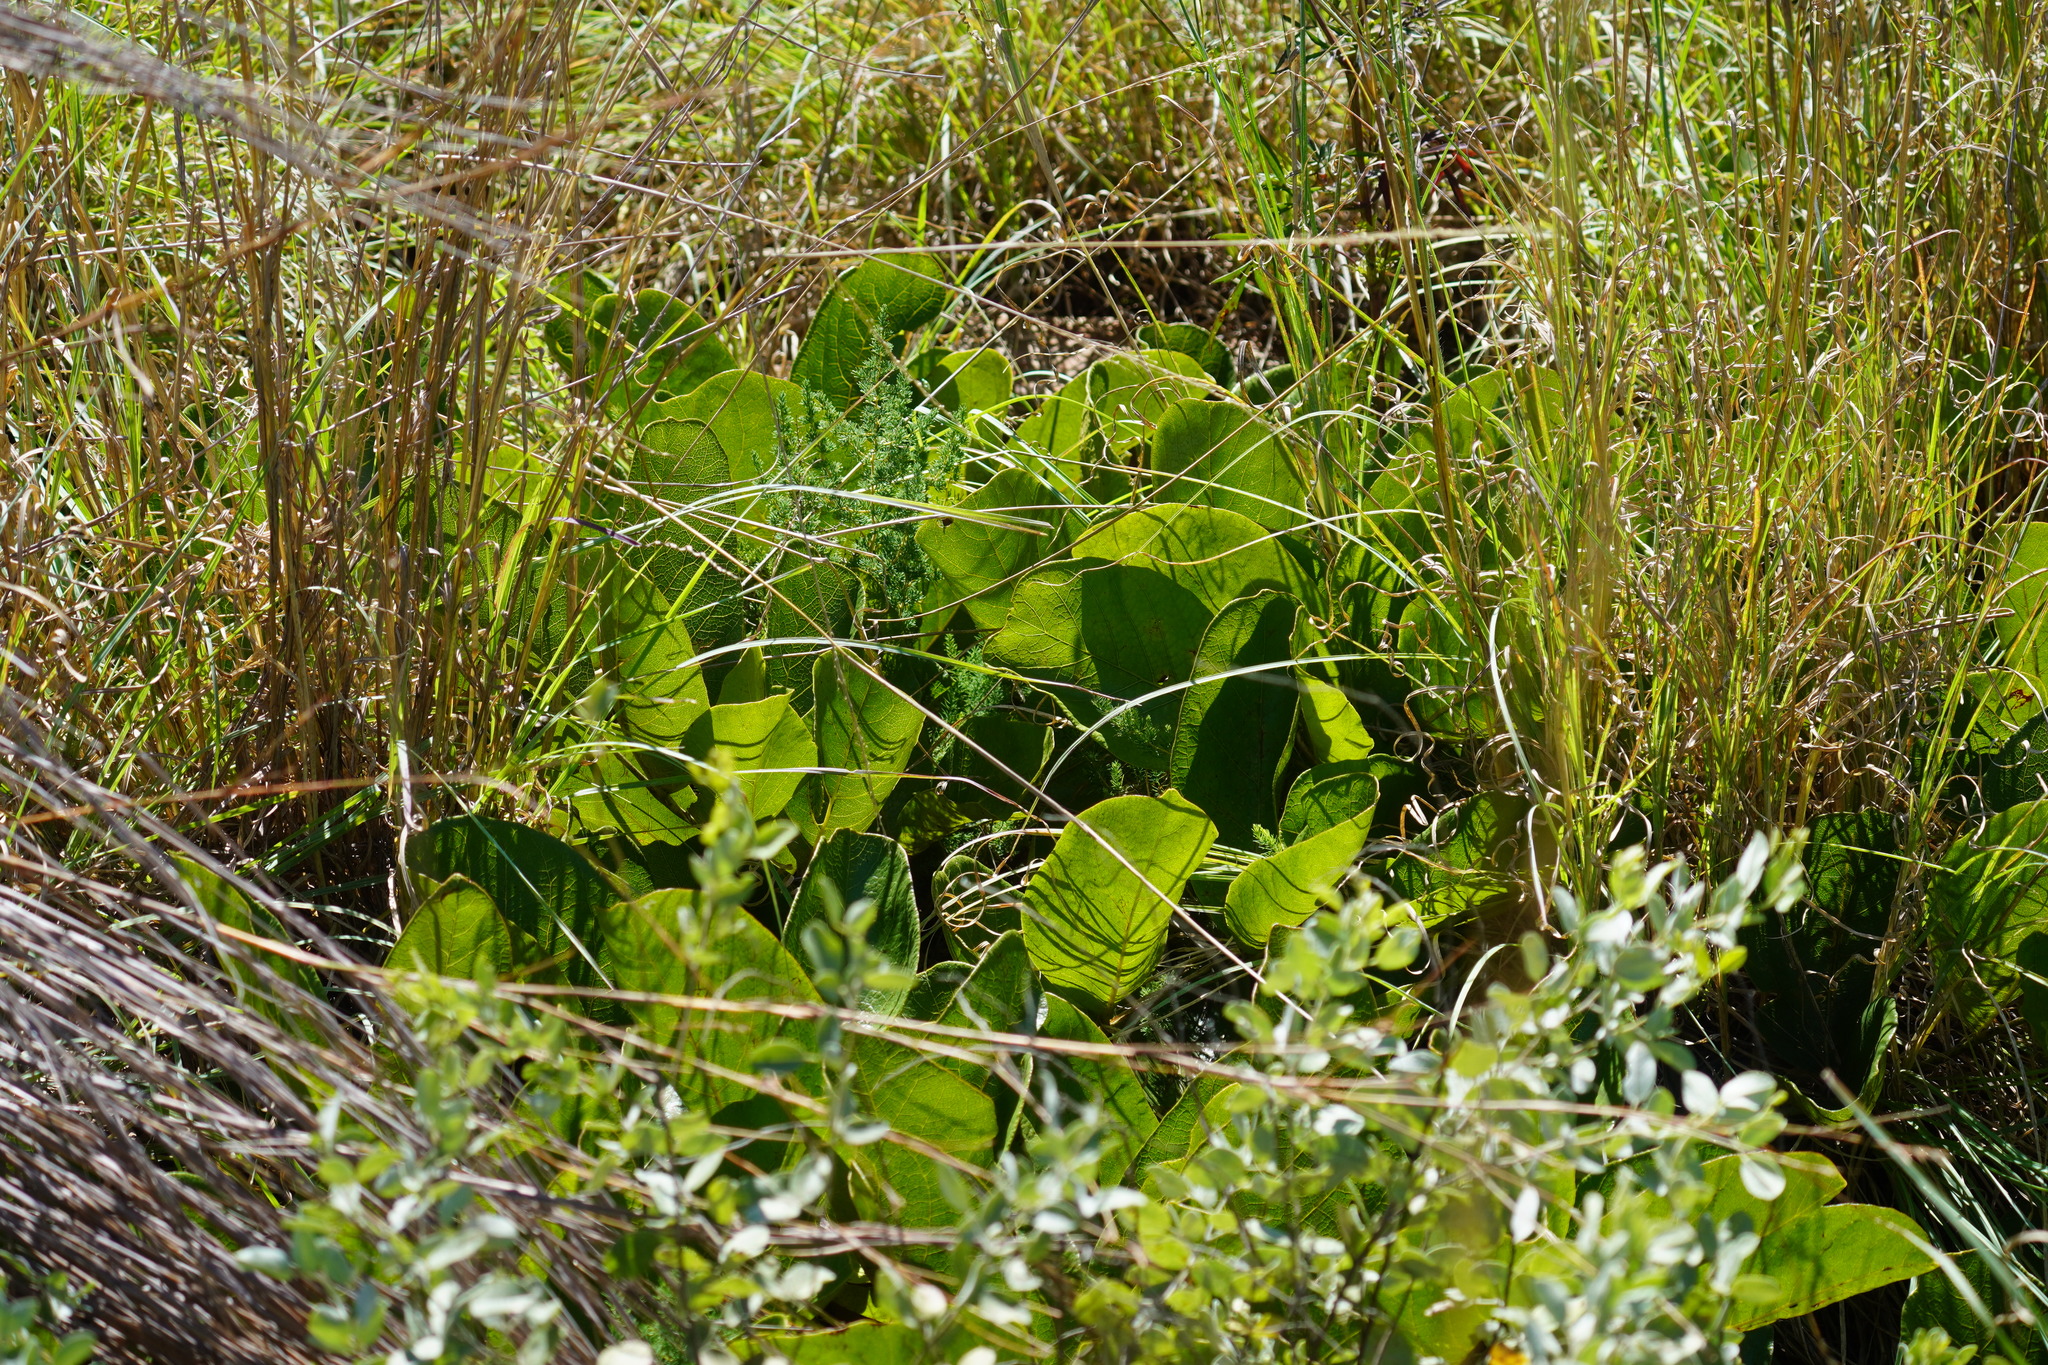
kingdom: Plantae
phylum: Tracheophyta
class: Magnoliopsida
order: Fabales
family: Fabaceae
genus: Erythrina
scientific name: Erythrina zeyheri
